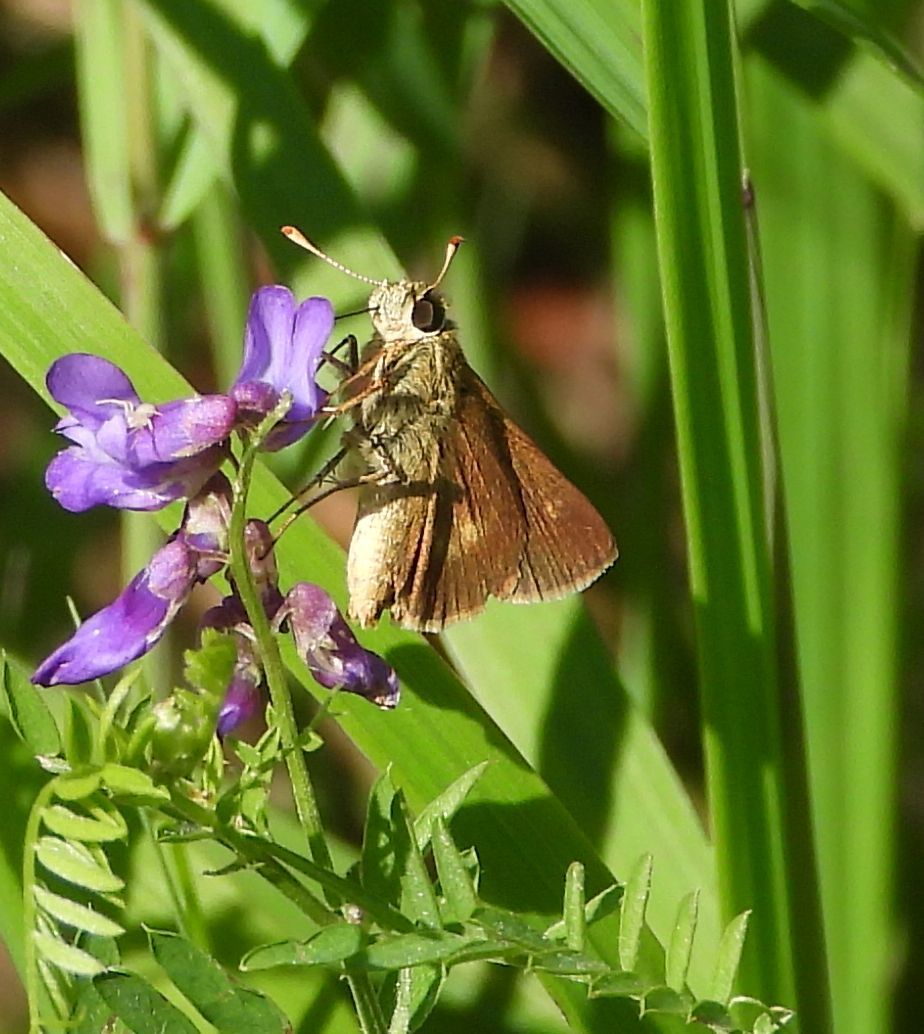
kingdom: Animalia
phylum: Arthropoda
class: Insecta
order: Lepidoptera
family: Hesperiidae
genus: Polites
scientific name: Polites egeremet
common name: Northern broken-dash
